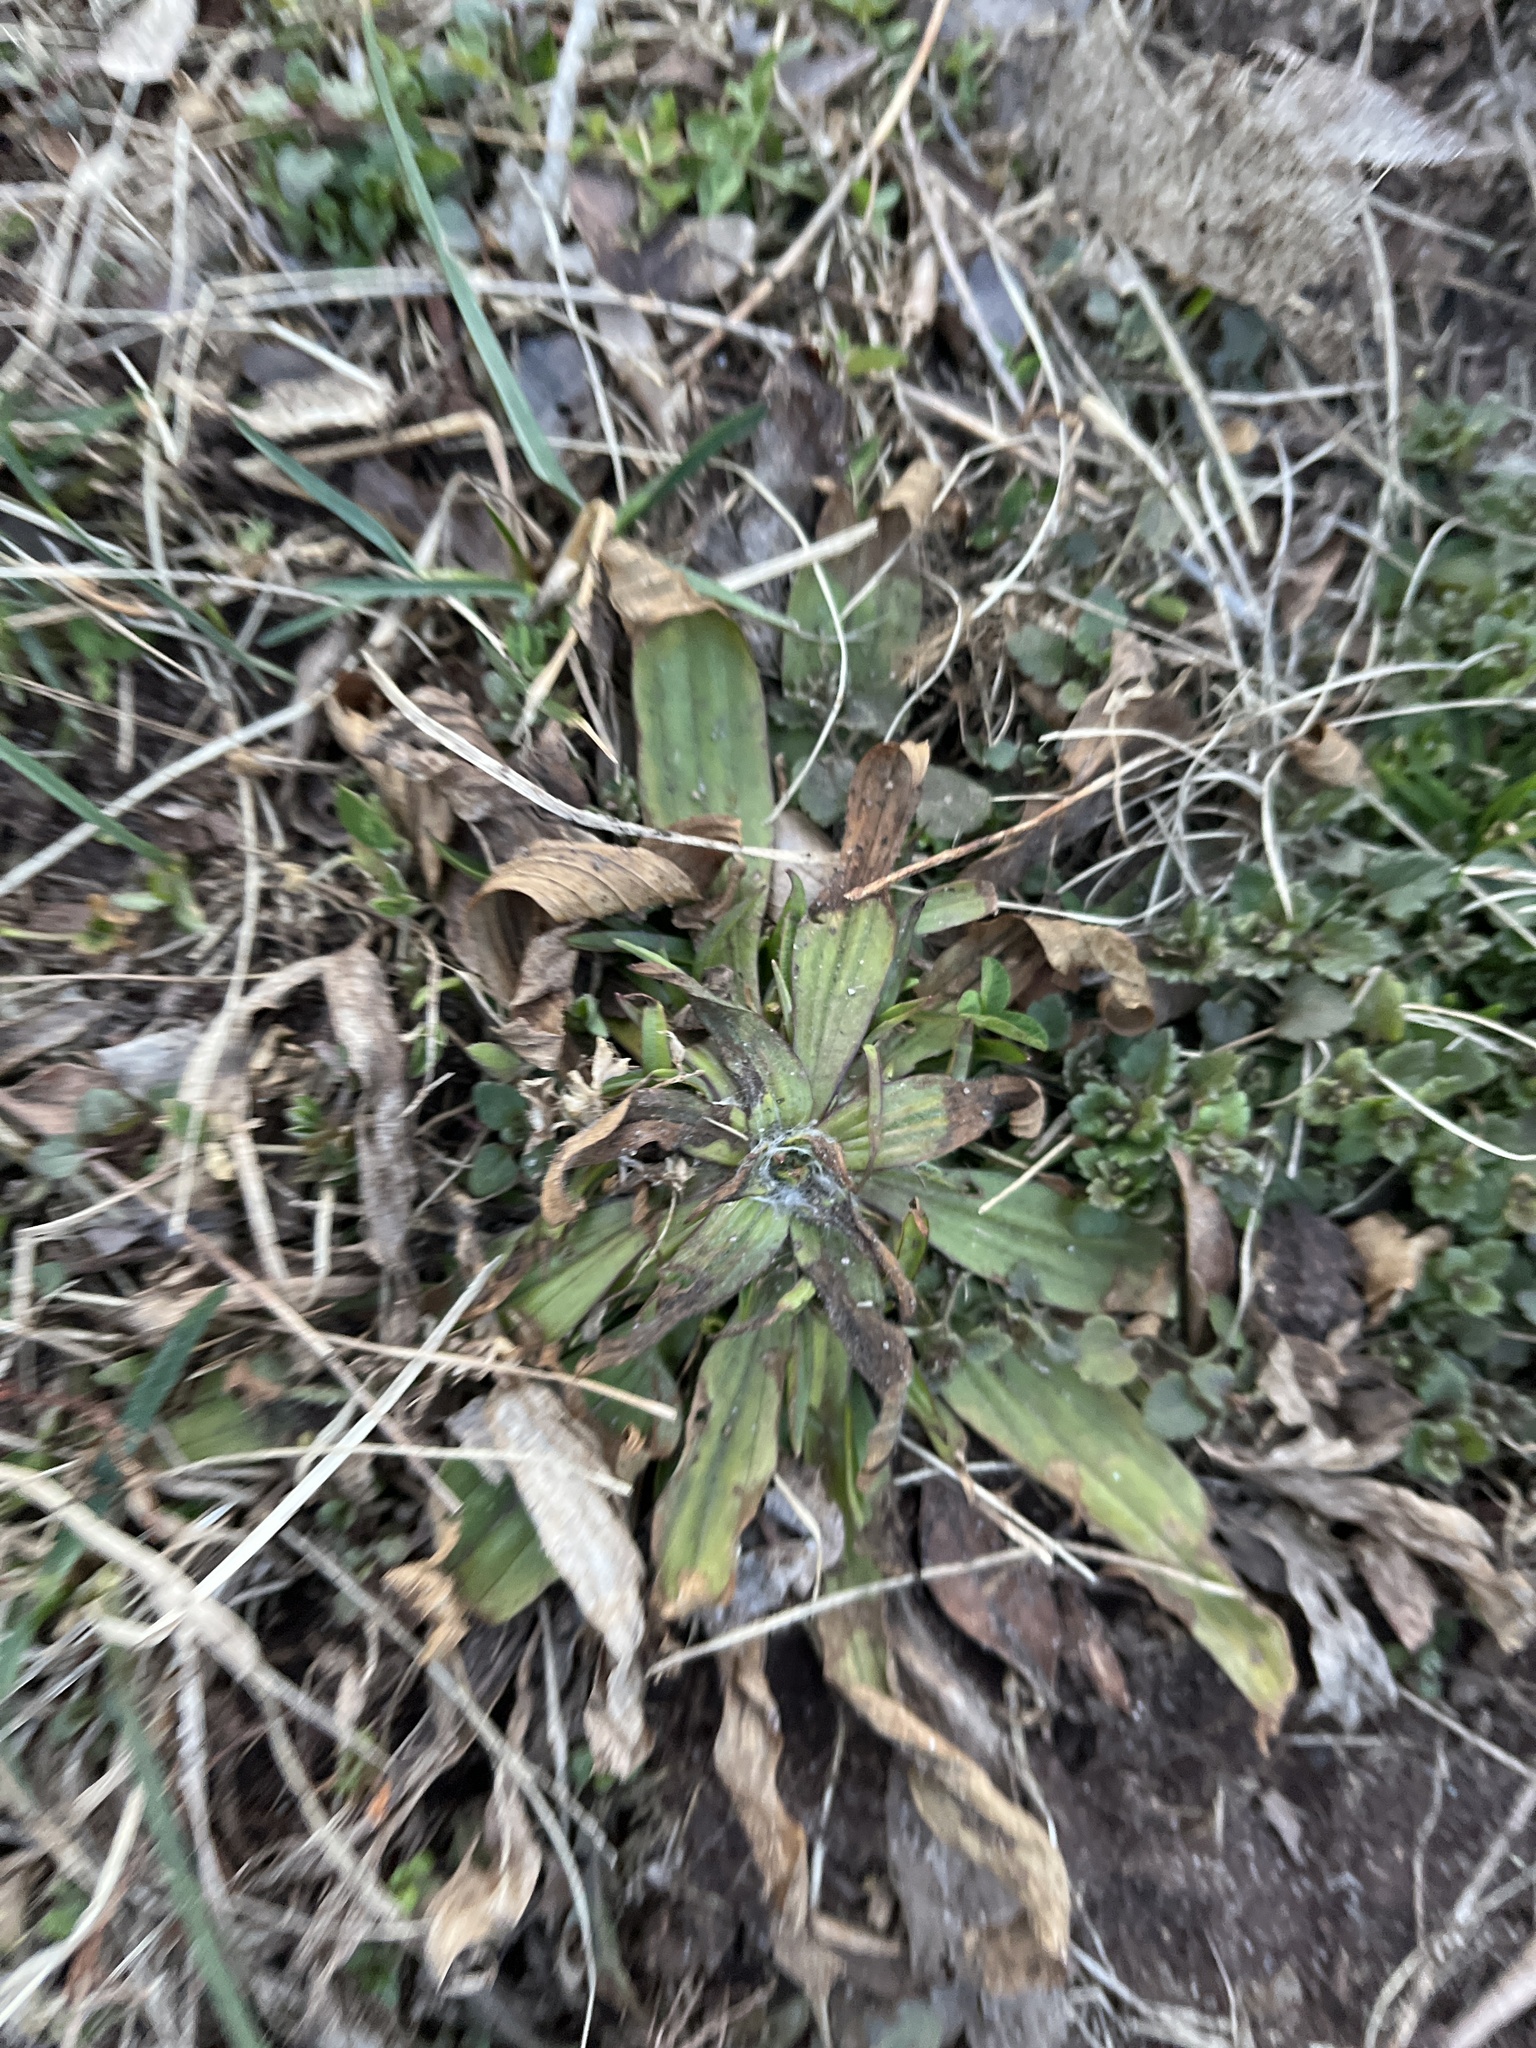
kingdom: Plantae
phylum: Tracheophyta
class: Magnoliopsida
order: Lamiales
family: Plantaginaceae
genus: Plantago
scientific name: Plantago lanceolata
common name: Ribwort plantain
